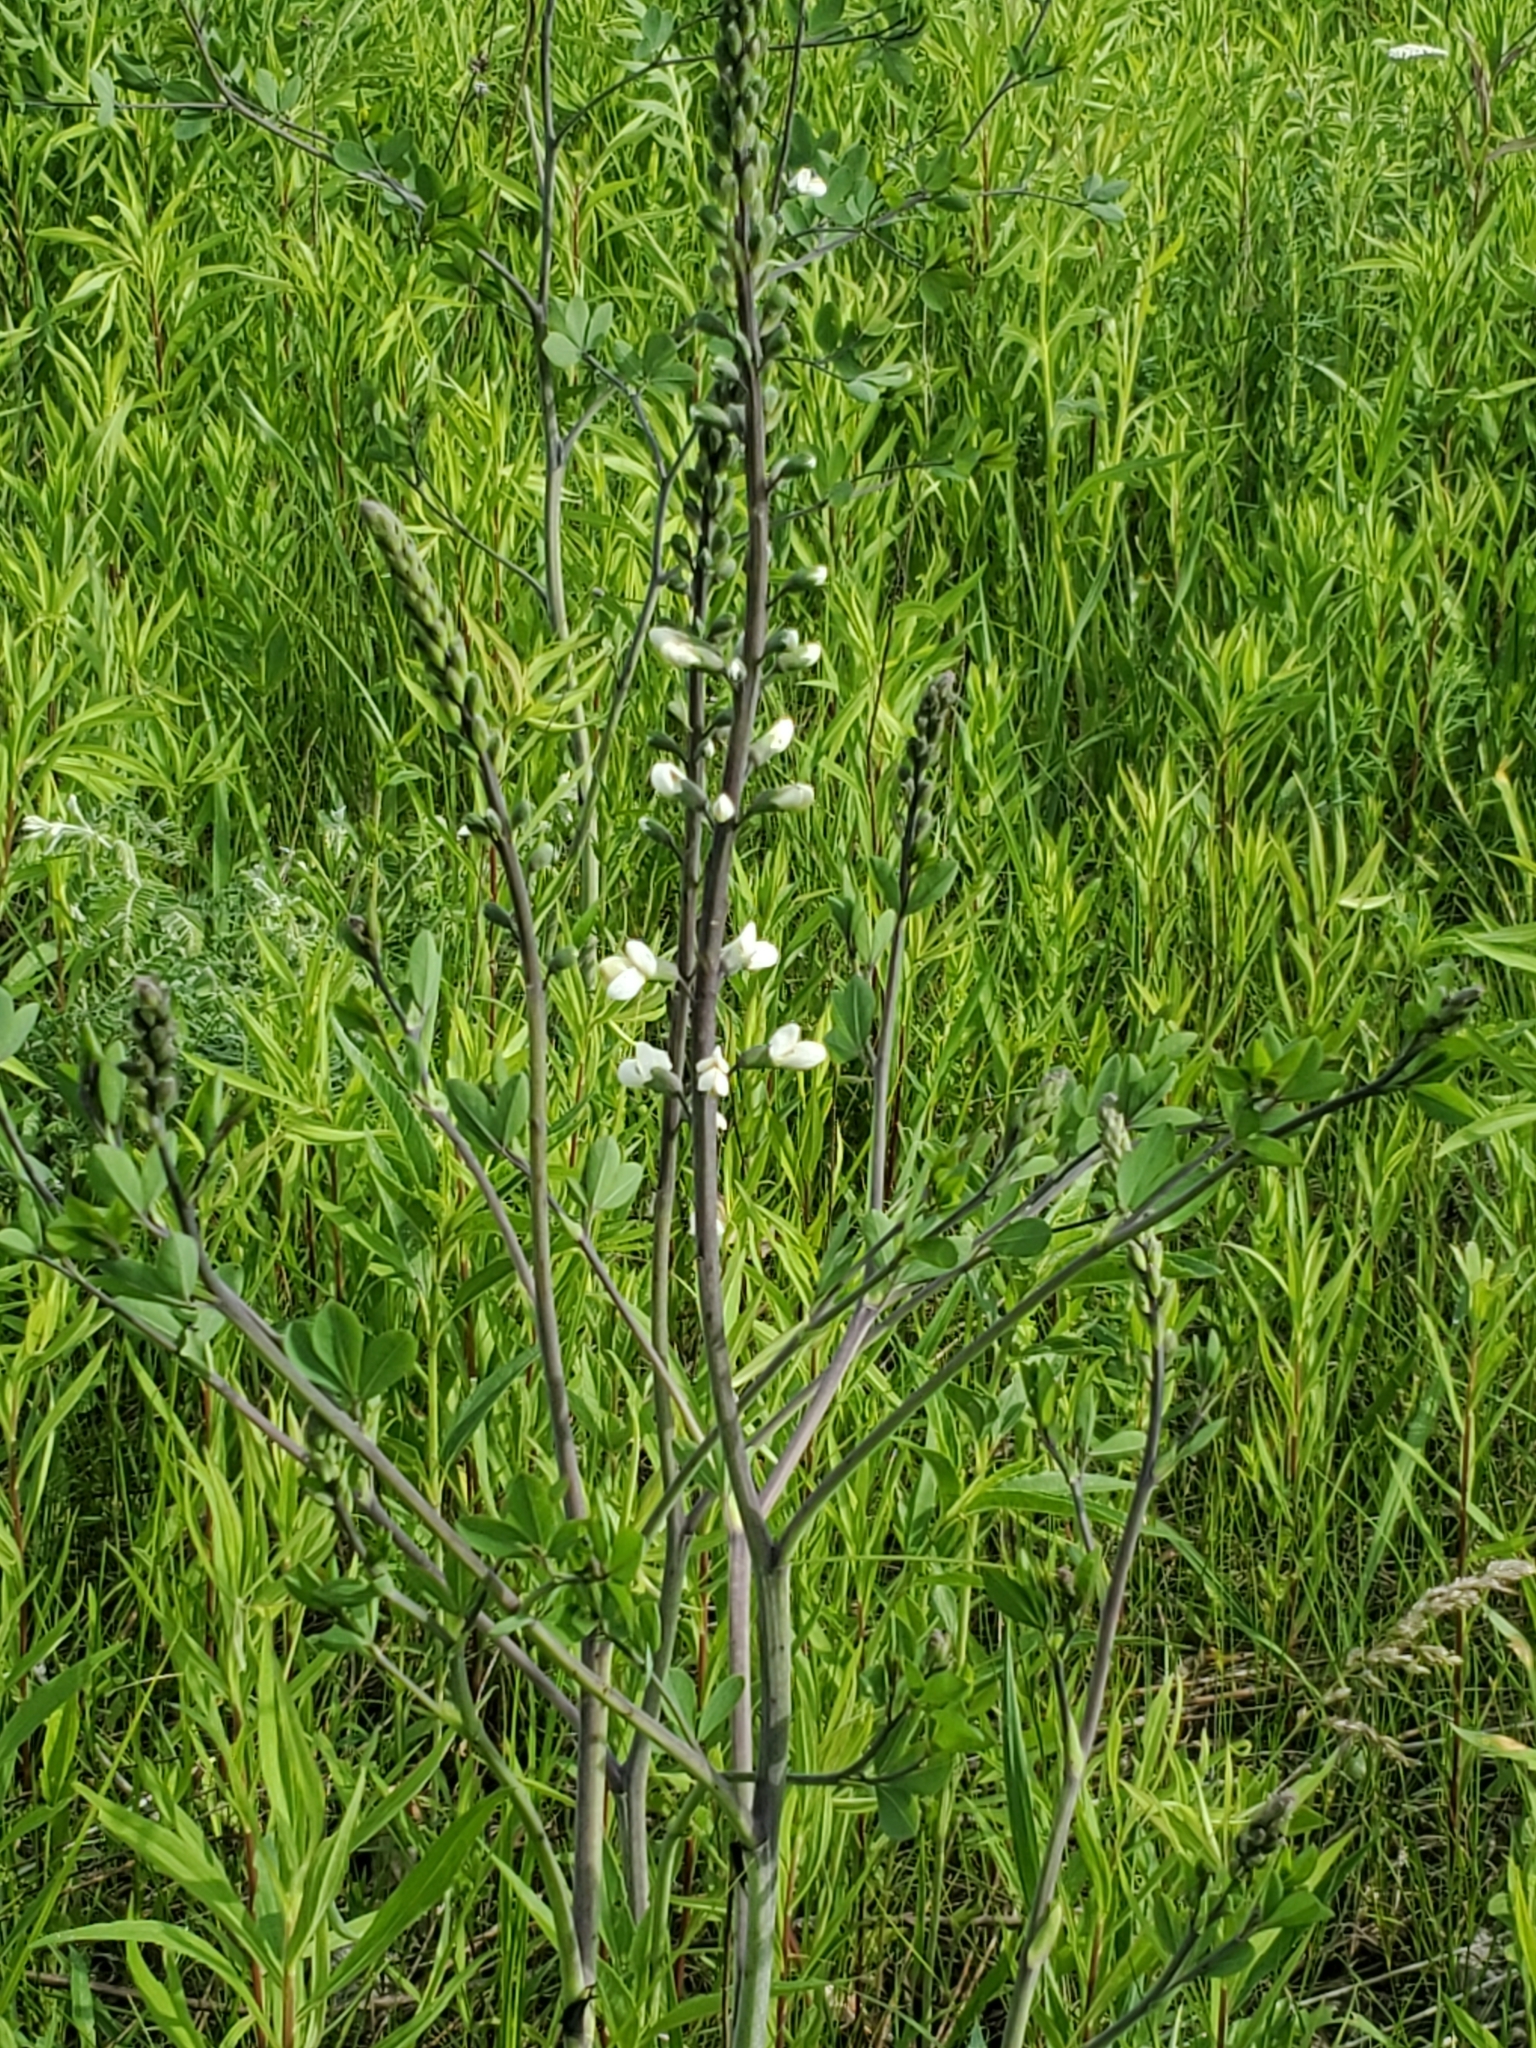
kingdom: Plantae
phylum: Tracheophyta
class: Magnoliopsida
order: Fabales
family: Fabaceae
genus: Baptisia
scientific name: Baptisia alba
